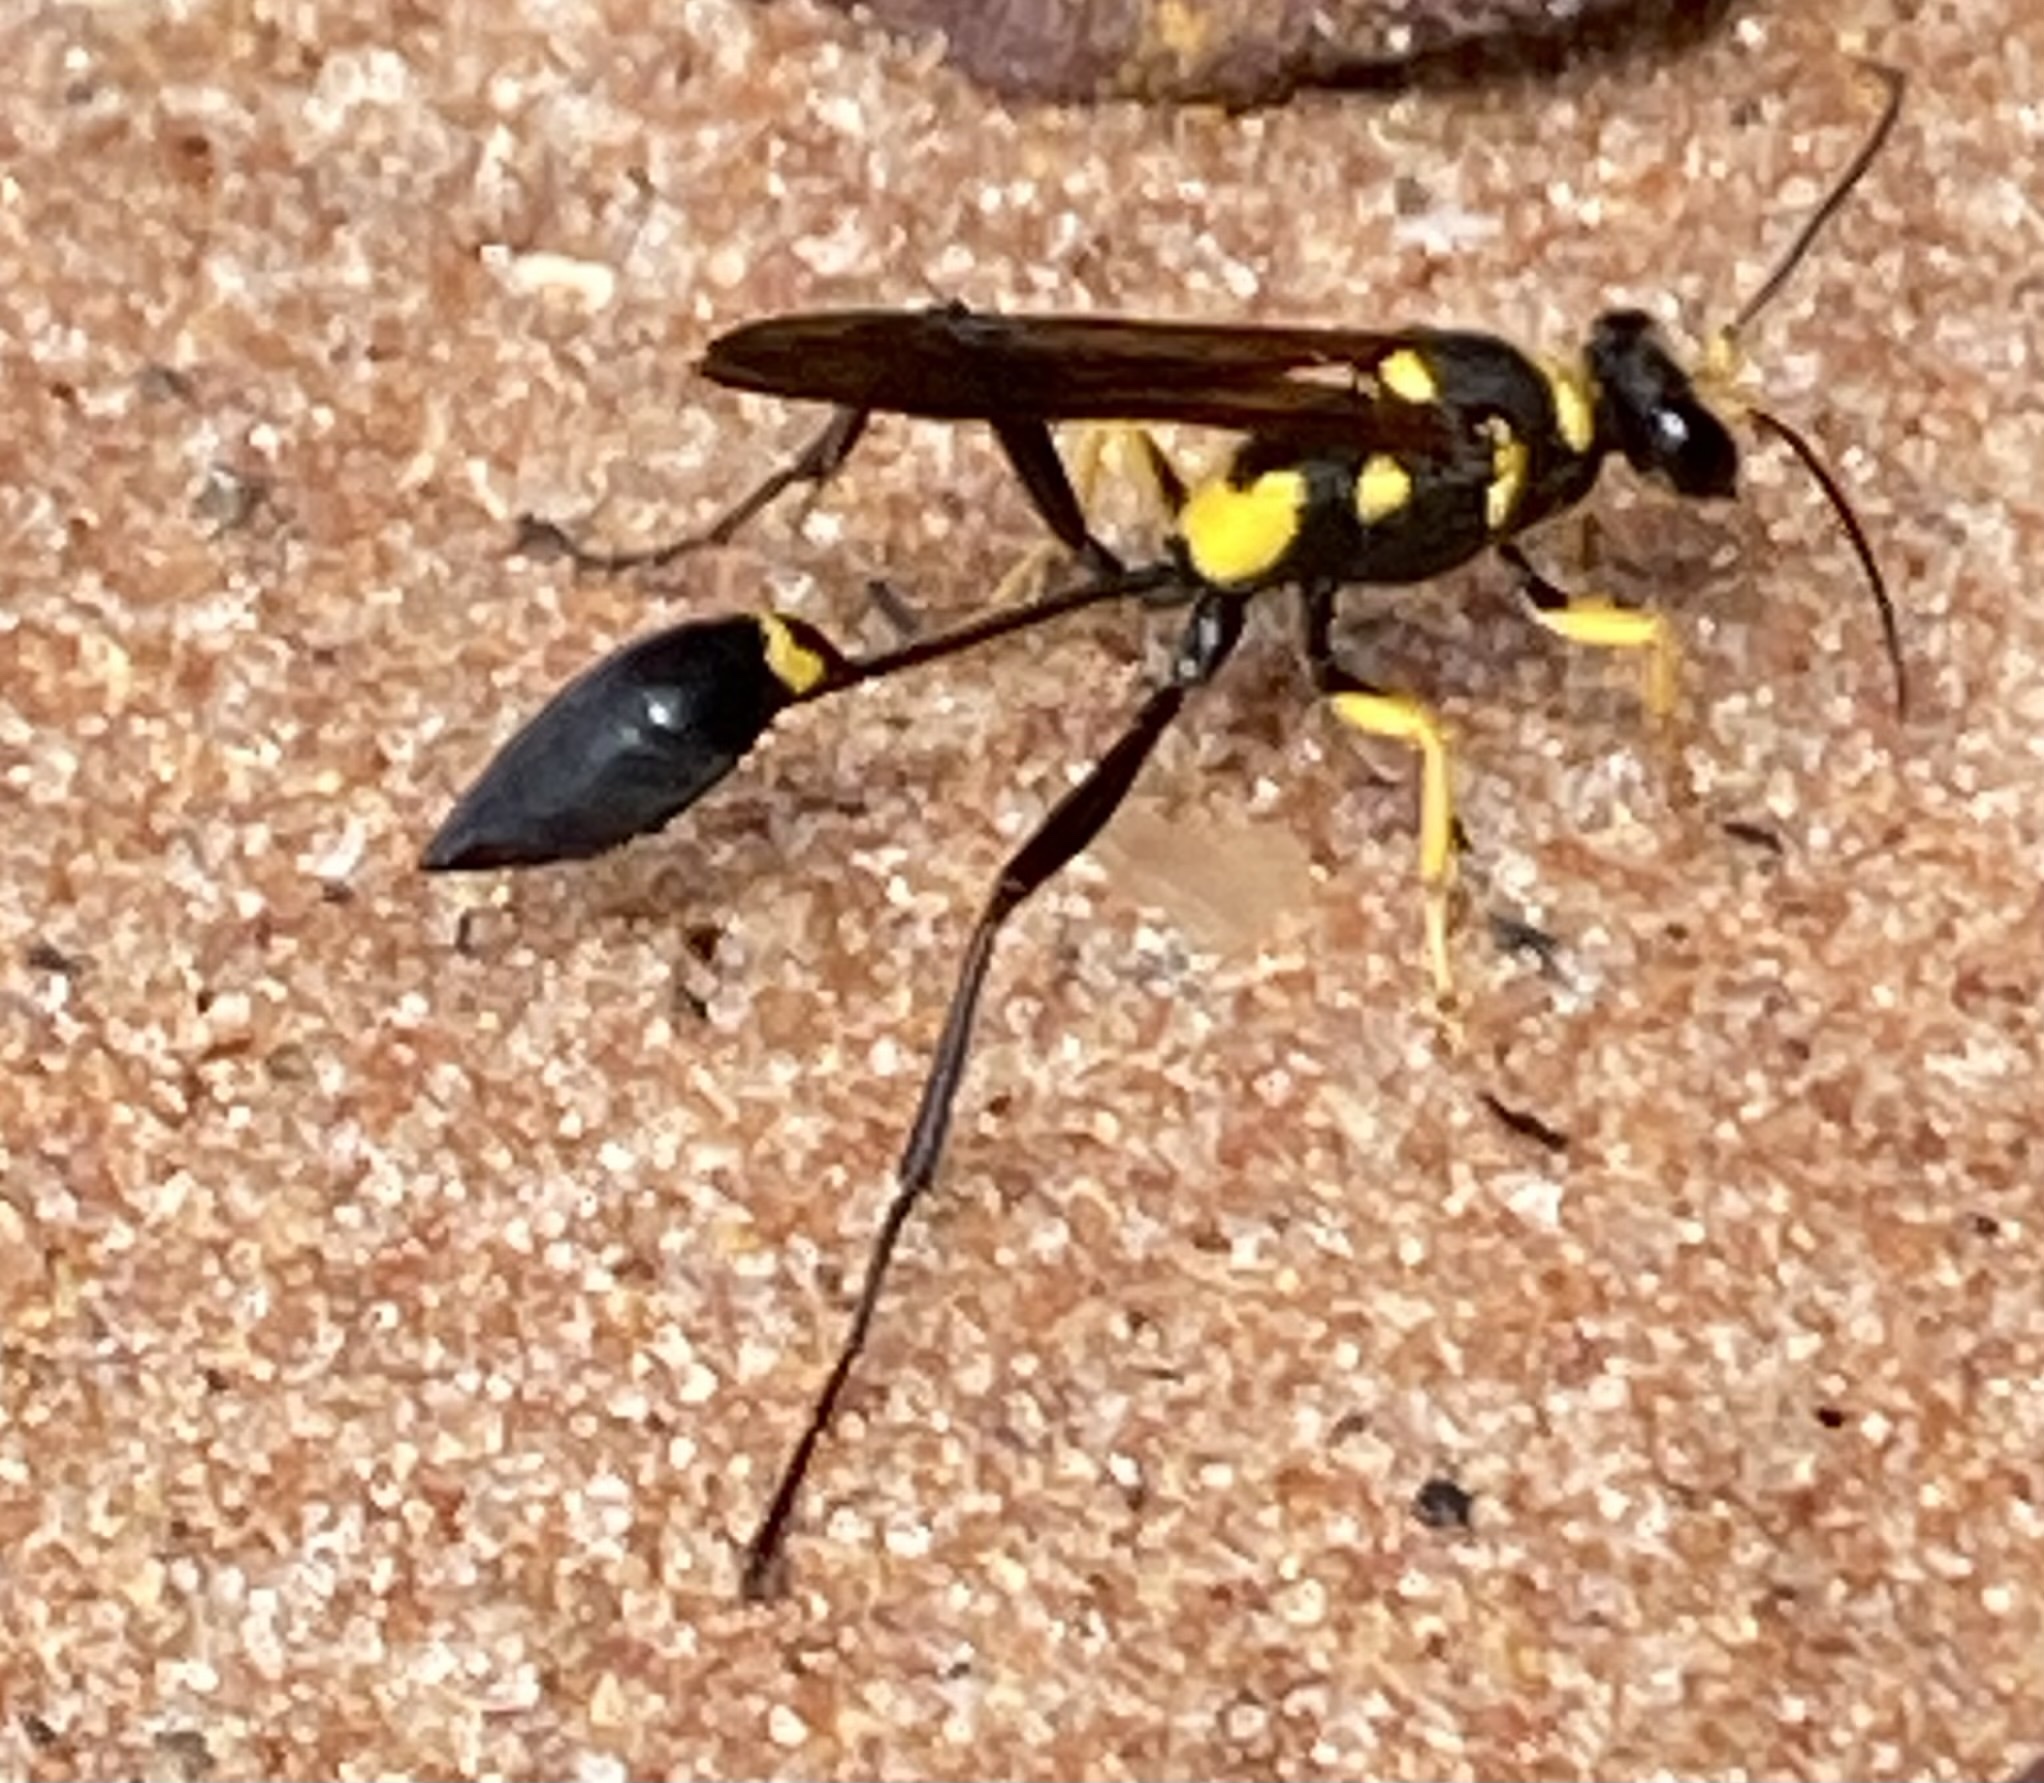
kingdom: Animalia
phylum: Arthropoda
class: Insecta
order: Hymenoptera
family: Sphecidae
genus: Sceliphron
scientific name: Sceliphron asiaticum
